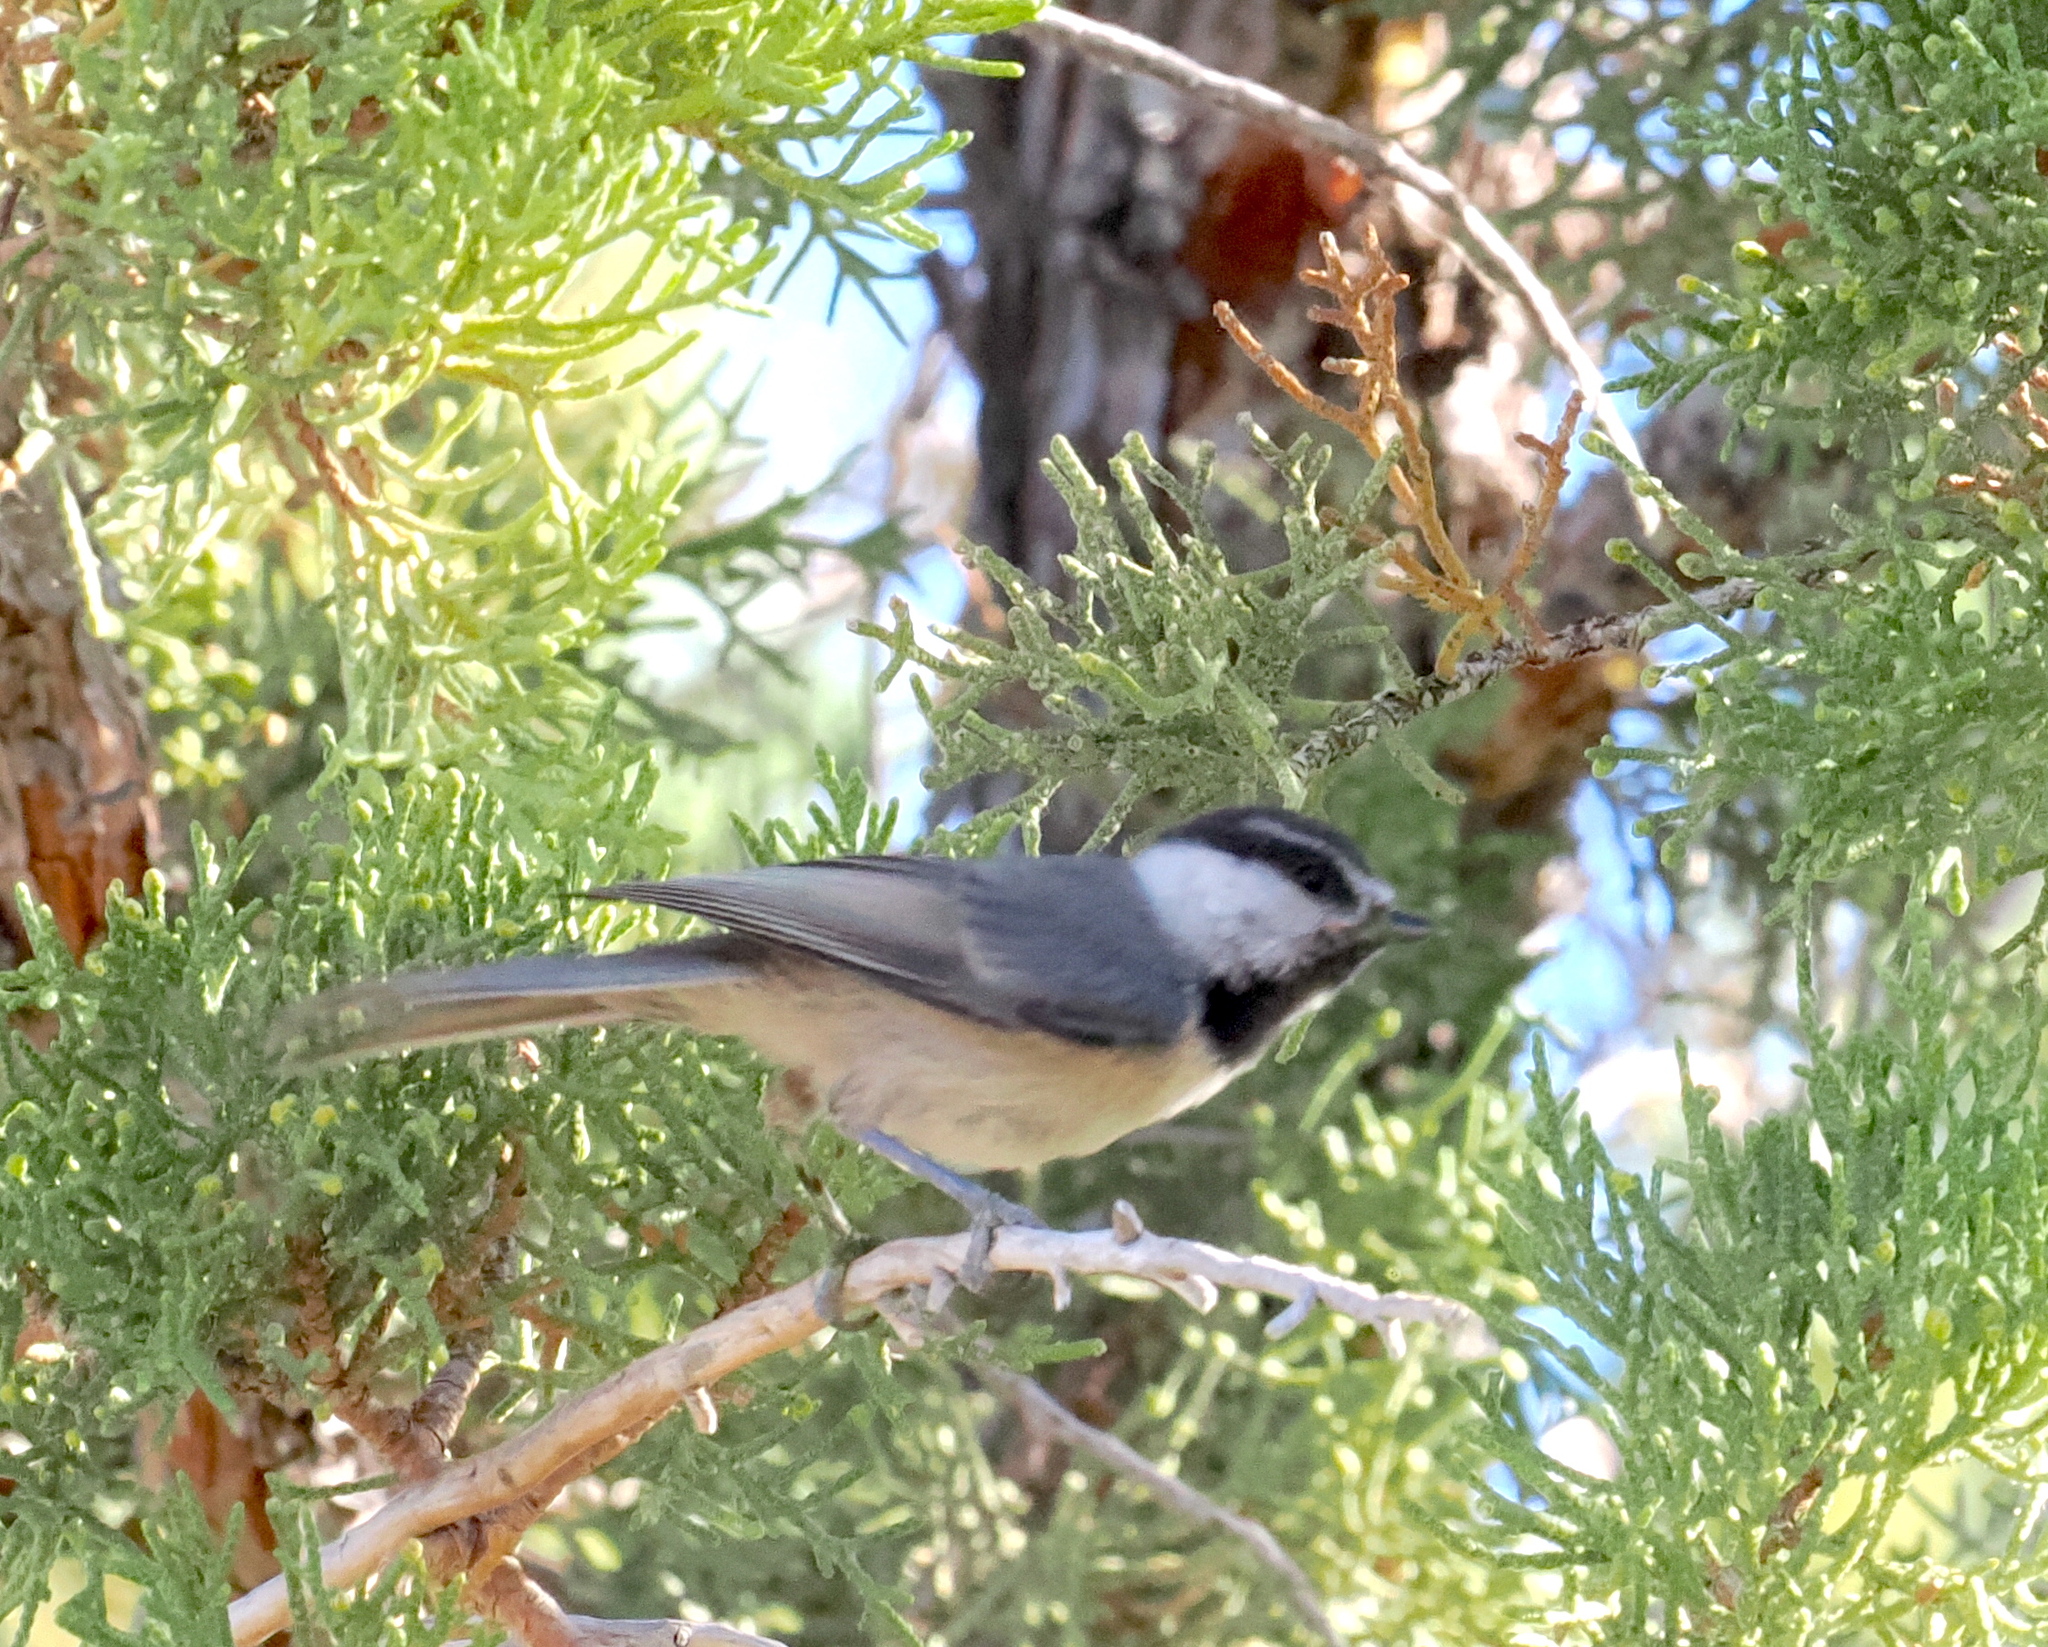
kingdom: Animalia
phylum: Chordata
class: Aves
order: Passeriformes
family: Paridae
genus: Poecile
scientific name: Poecile gambeli
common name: Mountain chickadee
